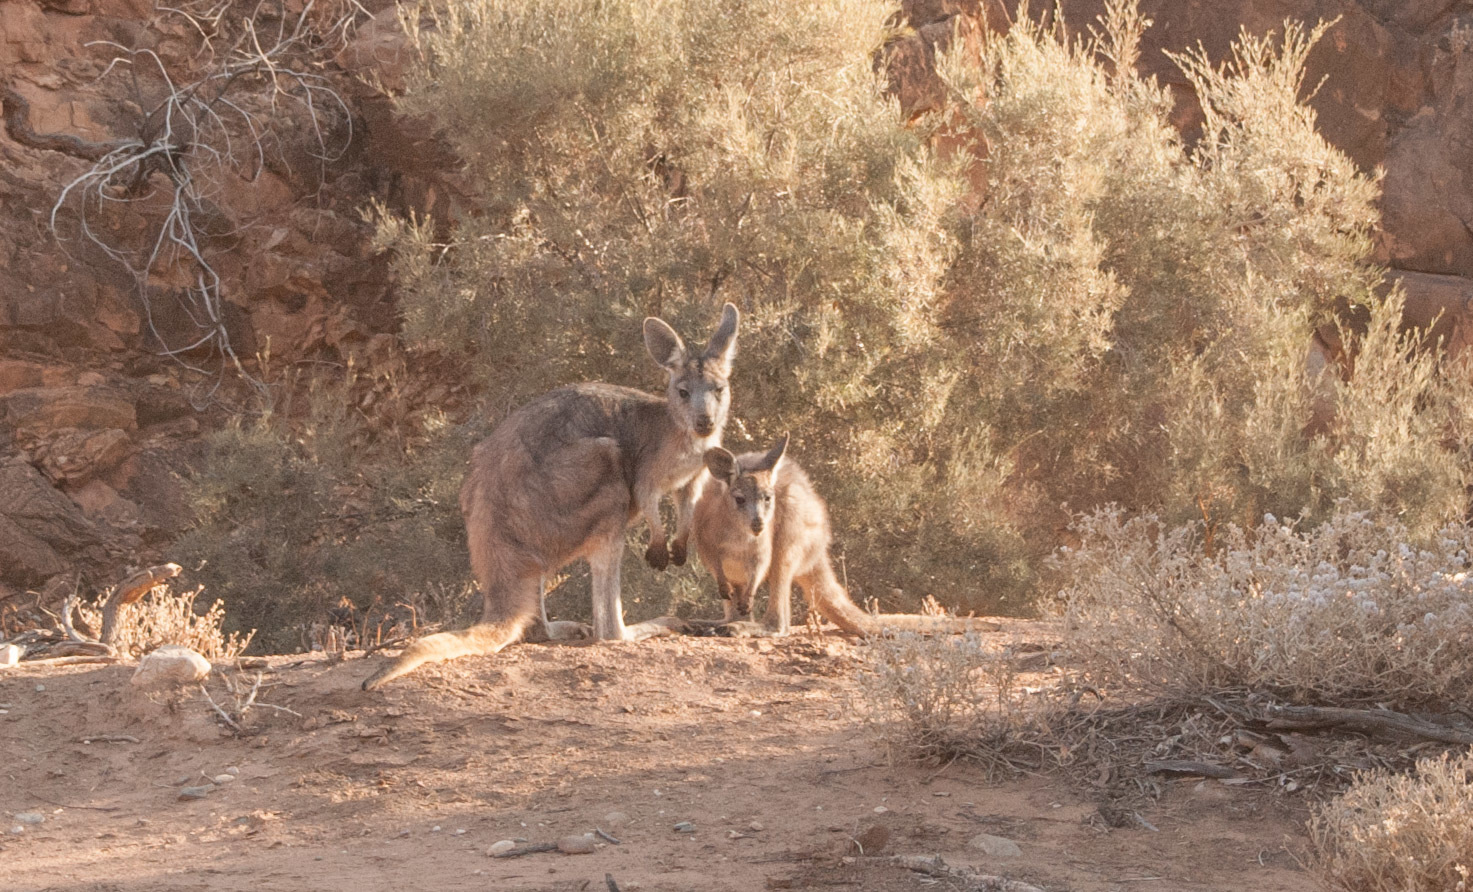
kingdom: Animalia
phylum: Chordata
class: Mammalia
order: Diprotodontia
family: Macropodidae
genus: Macropus
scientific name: Macropus robustus
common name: Eastern wallaroo
